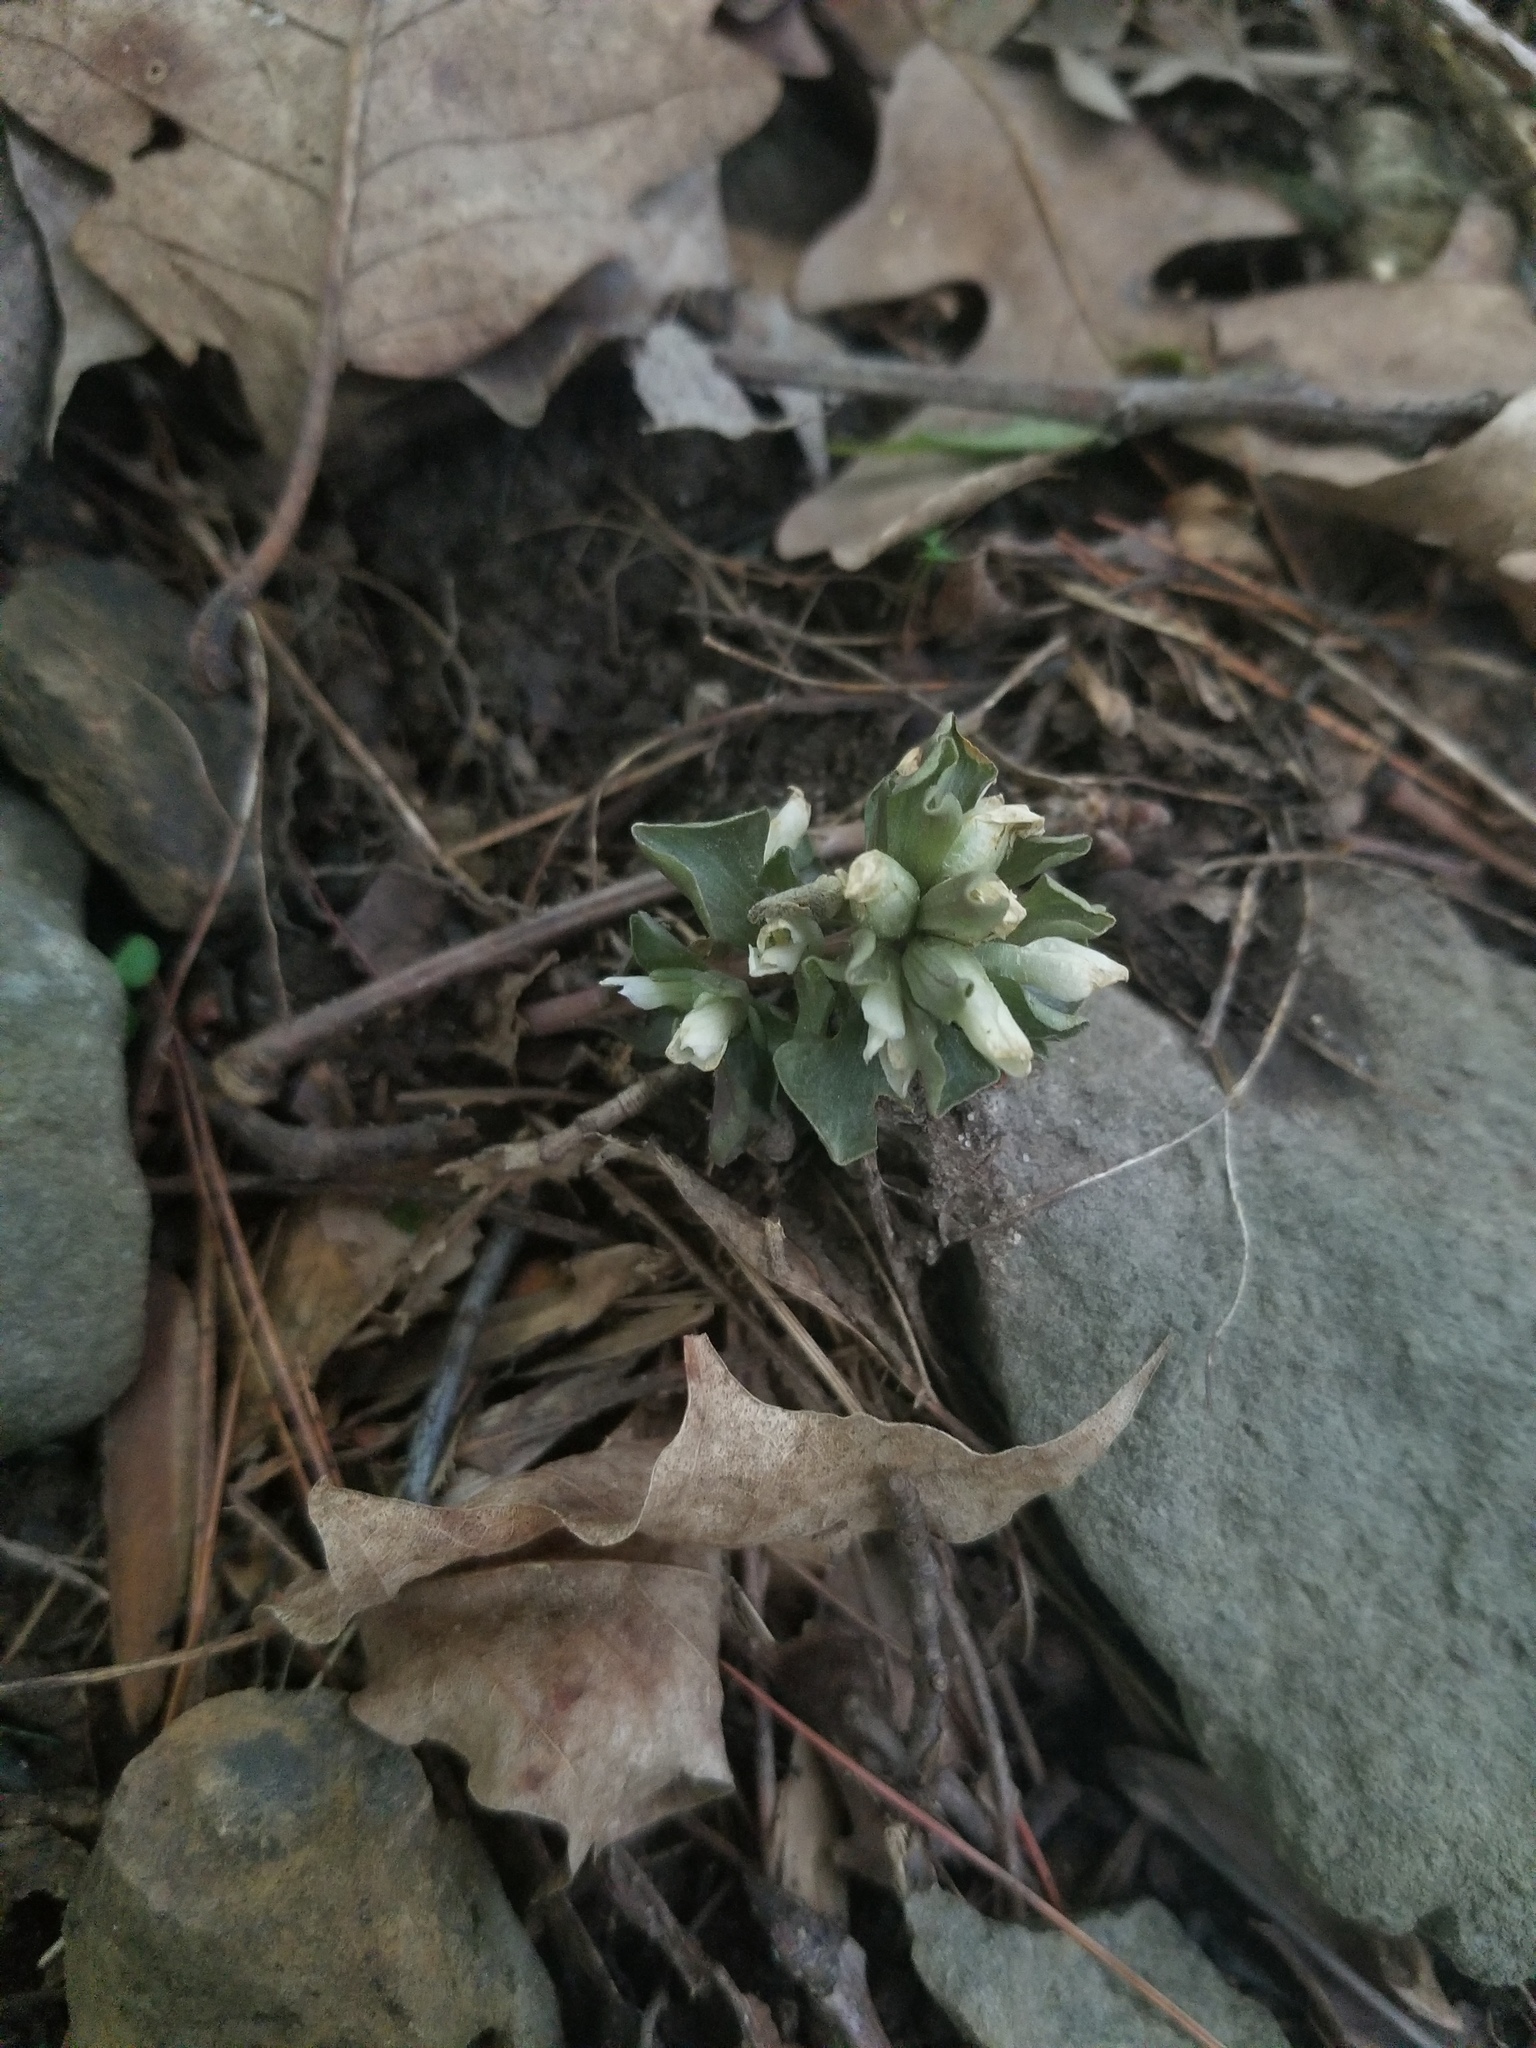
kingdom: Plantae
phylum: Tracheophyta
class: Magnoliopsida
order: Gentianales
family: Gentianaceae
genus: Obolaria
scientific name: Obolaria virginica
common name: Pennywort
